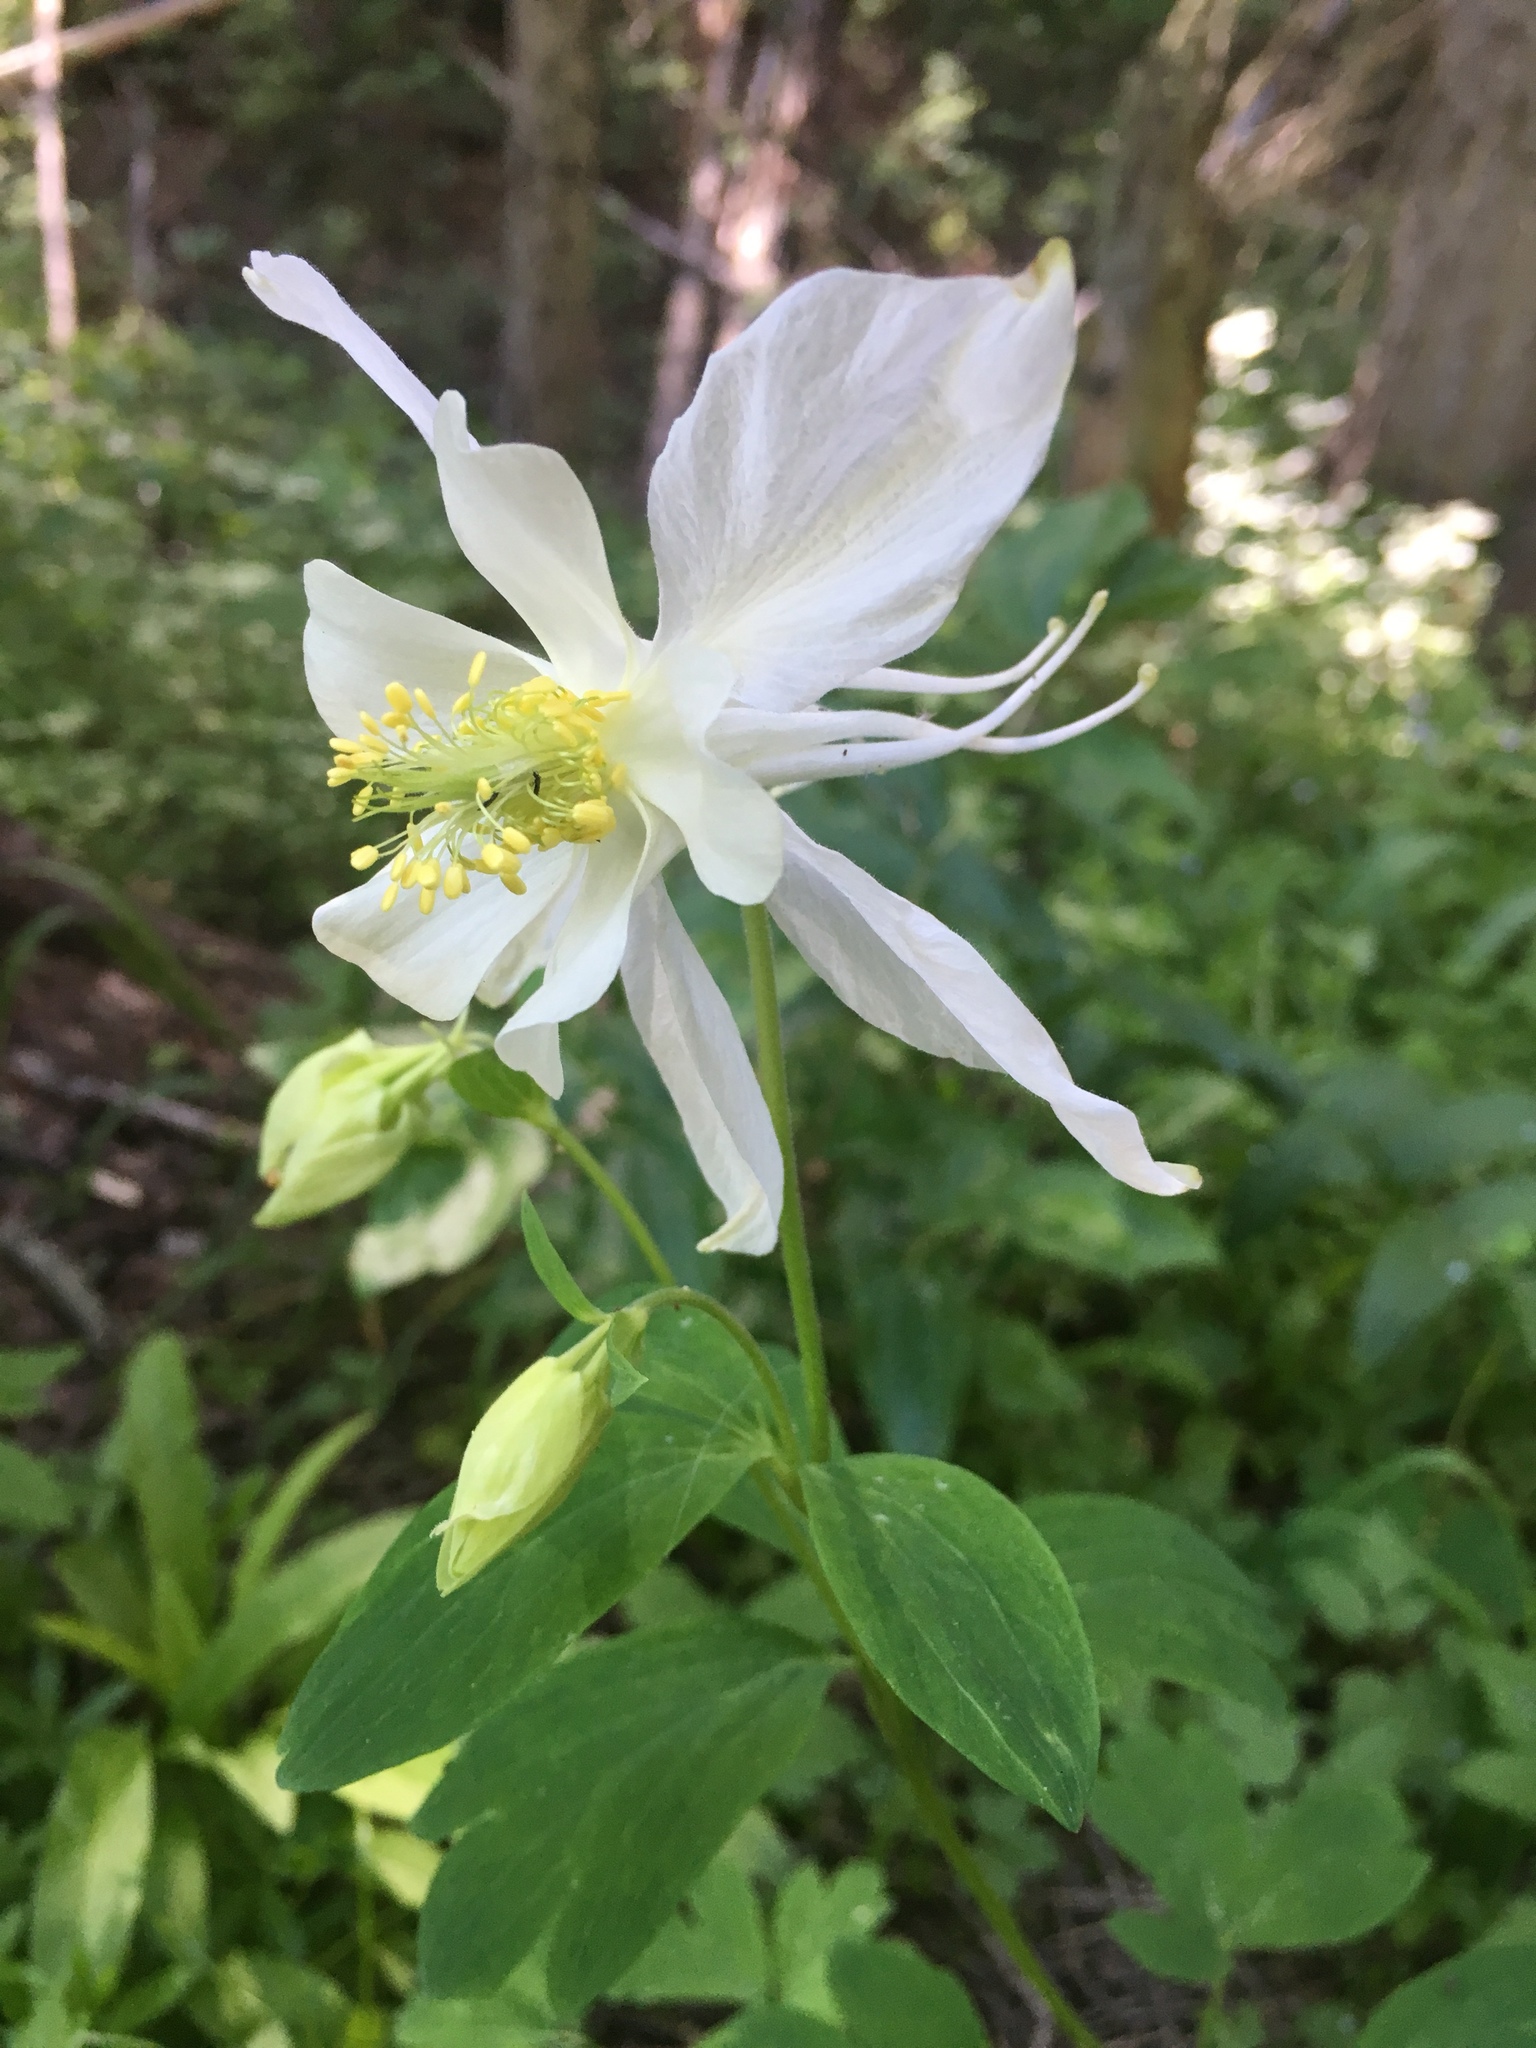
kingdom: Plantae
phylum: Tracheophyta
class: Magnoliopsida
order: Ranunculales
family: Ranunculaceae
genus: Aquilegia
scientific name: Aquilegia coerulea
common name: Rocky mountain columbine
